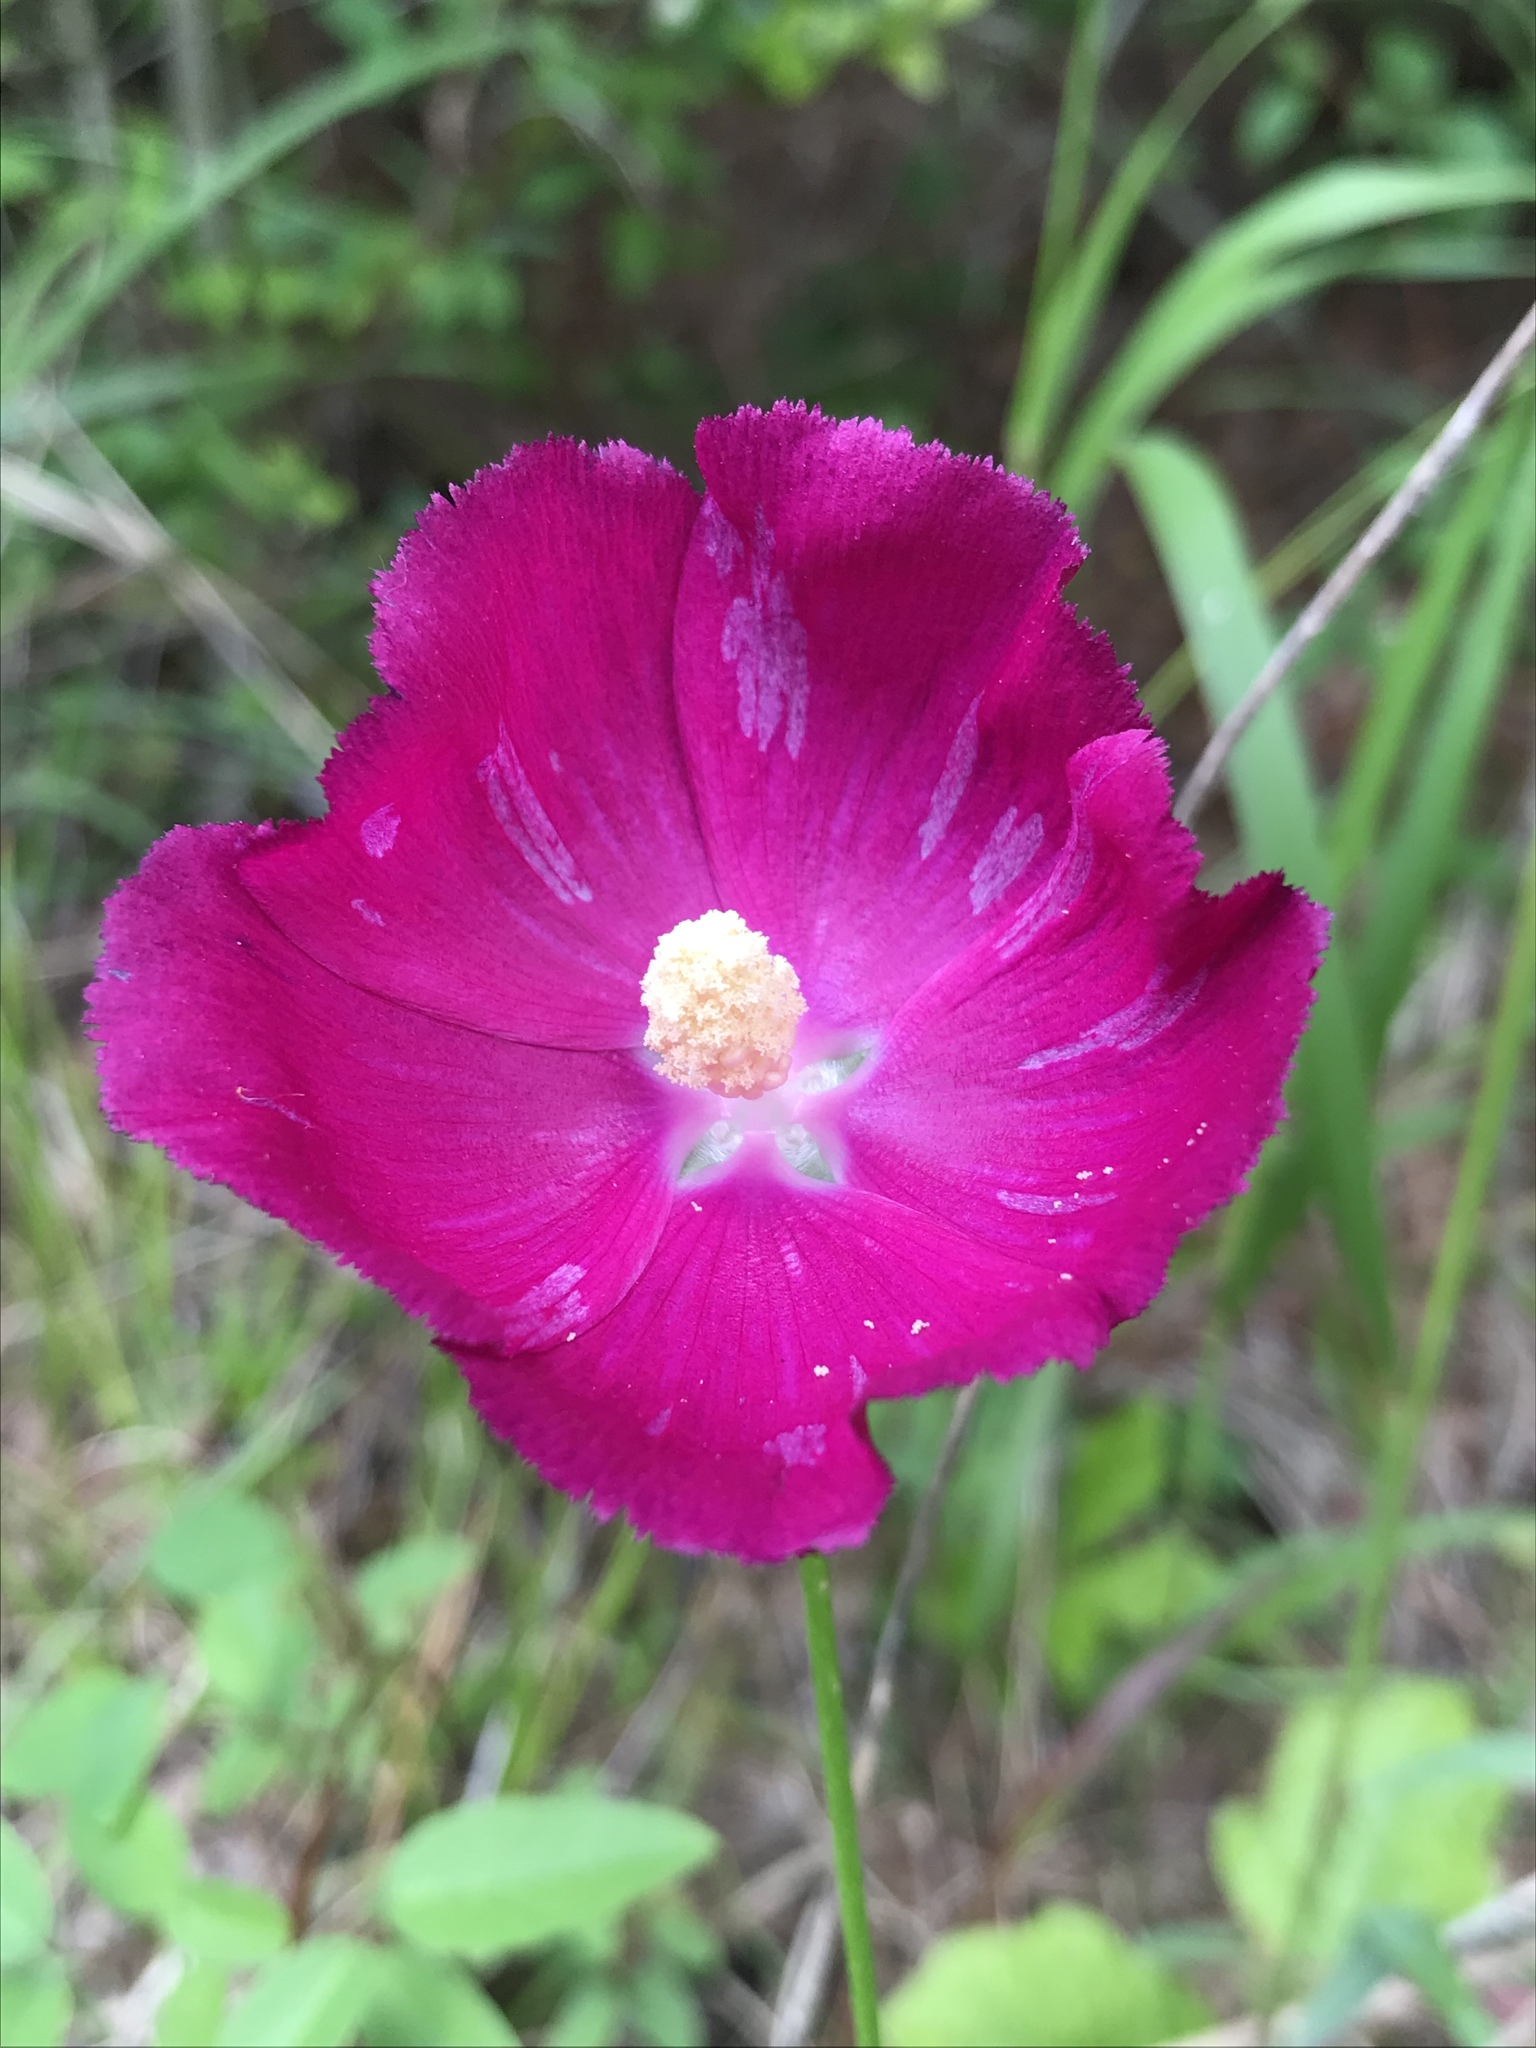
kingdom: Plantae
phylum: Tracheophyta
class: Magnoliopsida
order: Malvales
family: Malvaceae
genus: Callirhoe
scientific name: Callirhoe papaver
